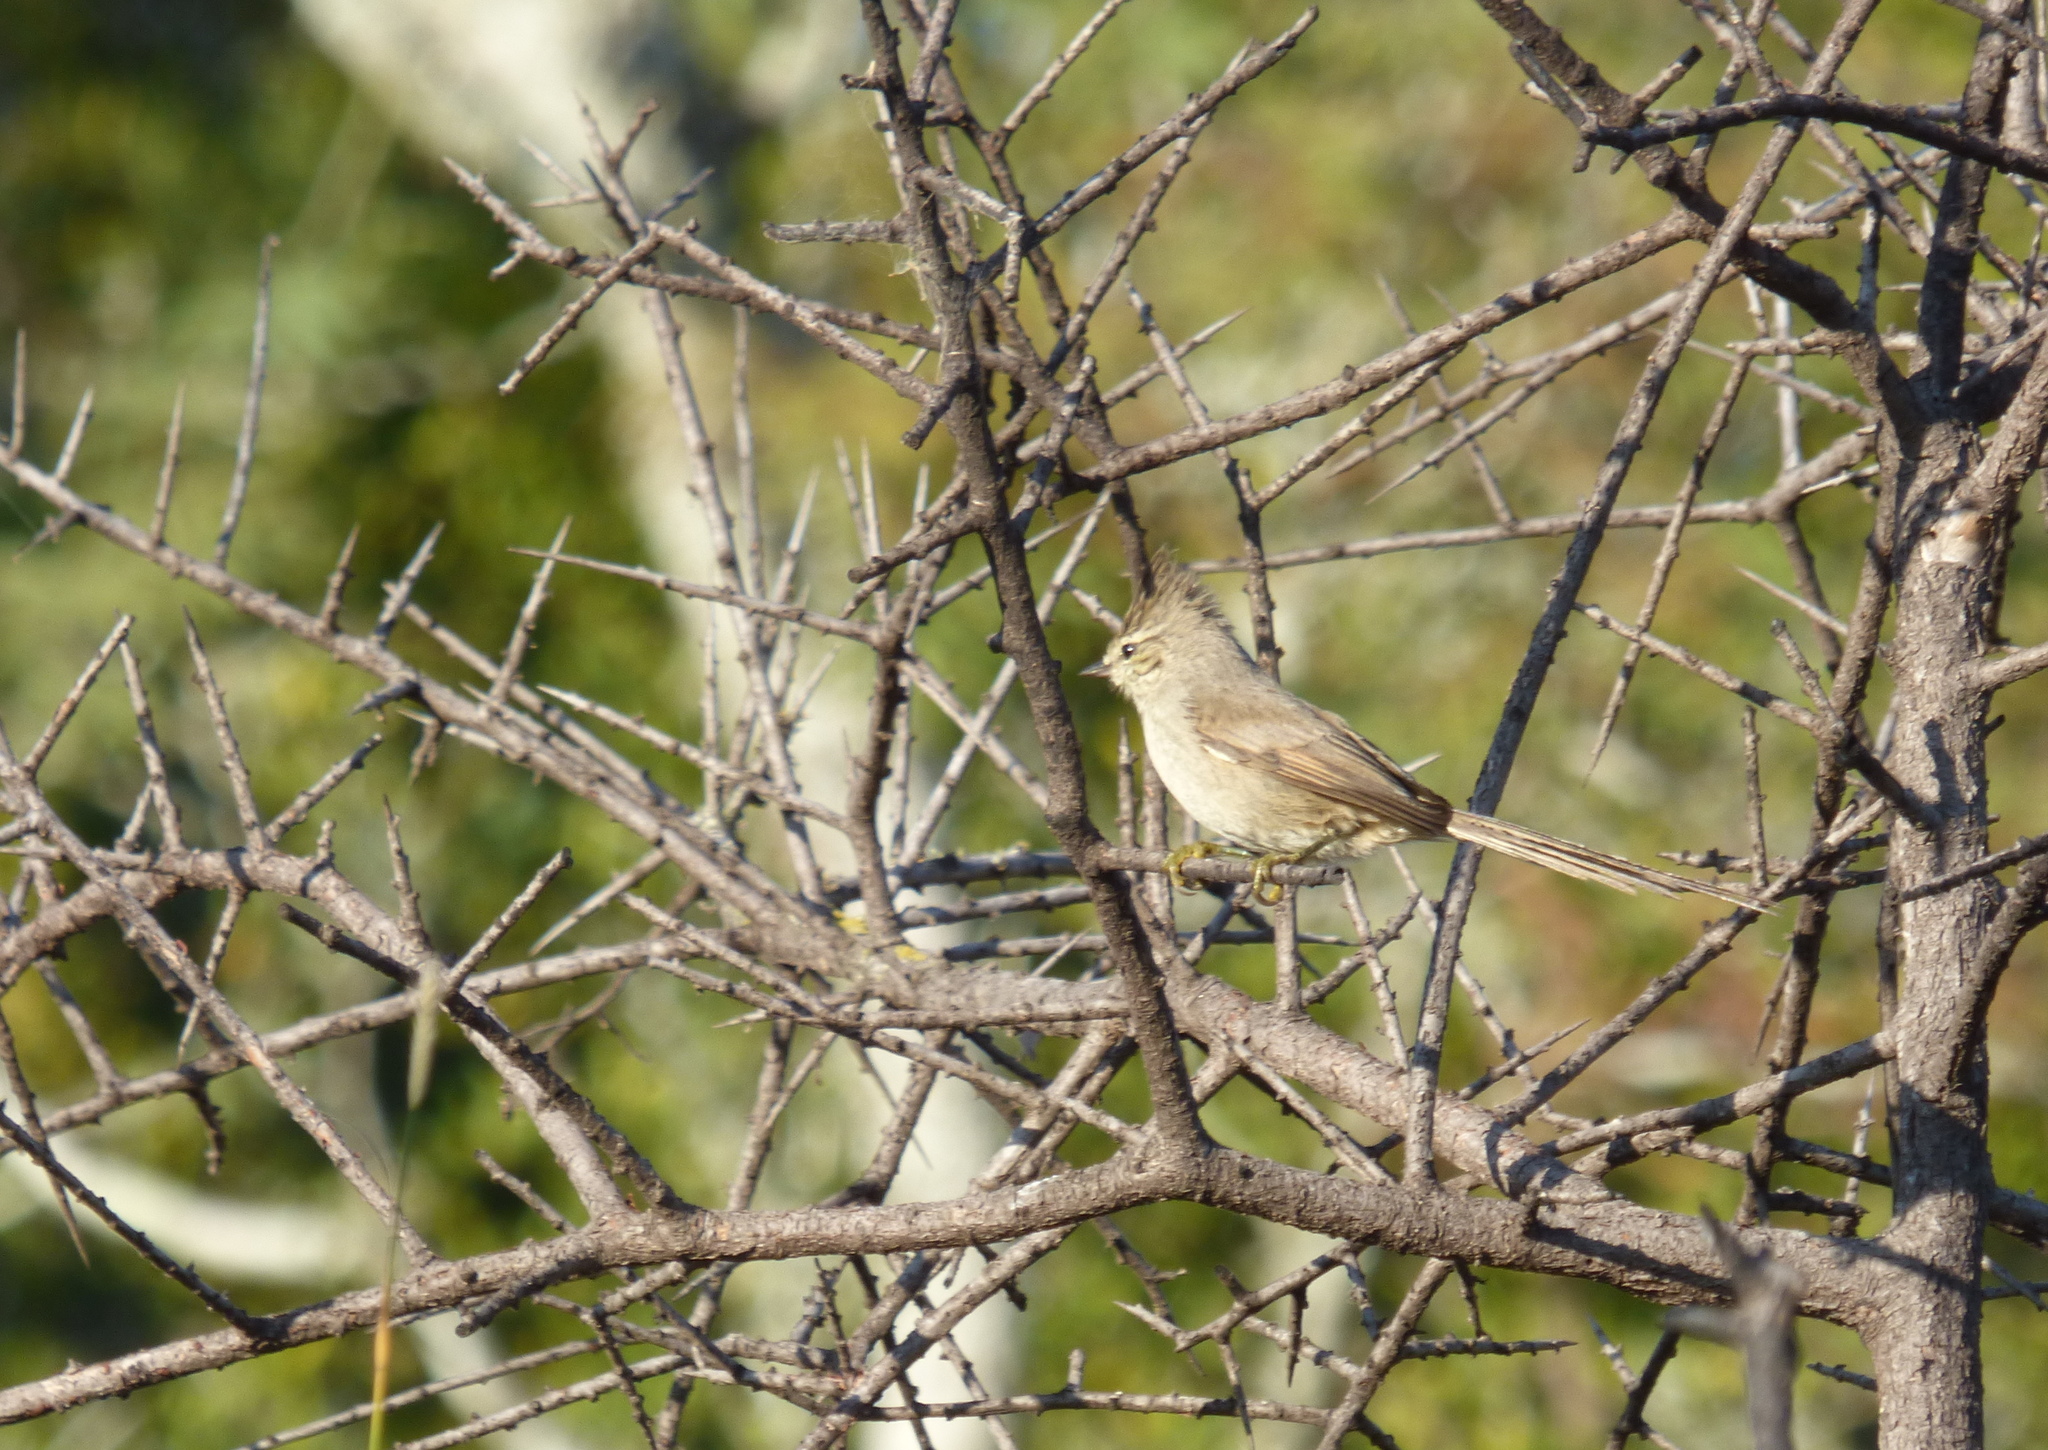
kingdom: Animalia
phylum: Chordata
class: Aves
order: Passeriformes
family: Furnariidae
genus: Leptasthenura
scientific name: Leptasthenura platensis
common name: Tufted tit-spinetail
